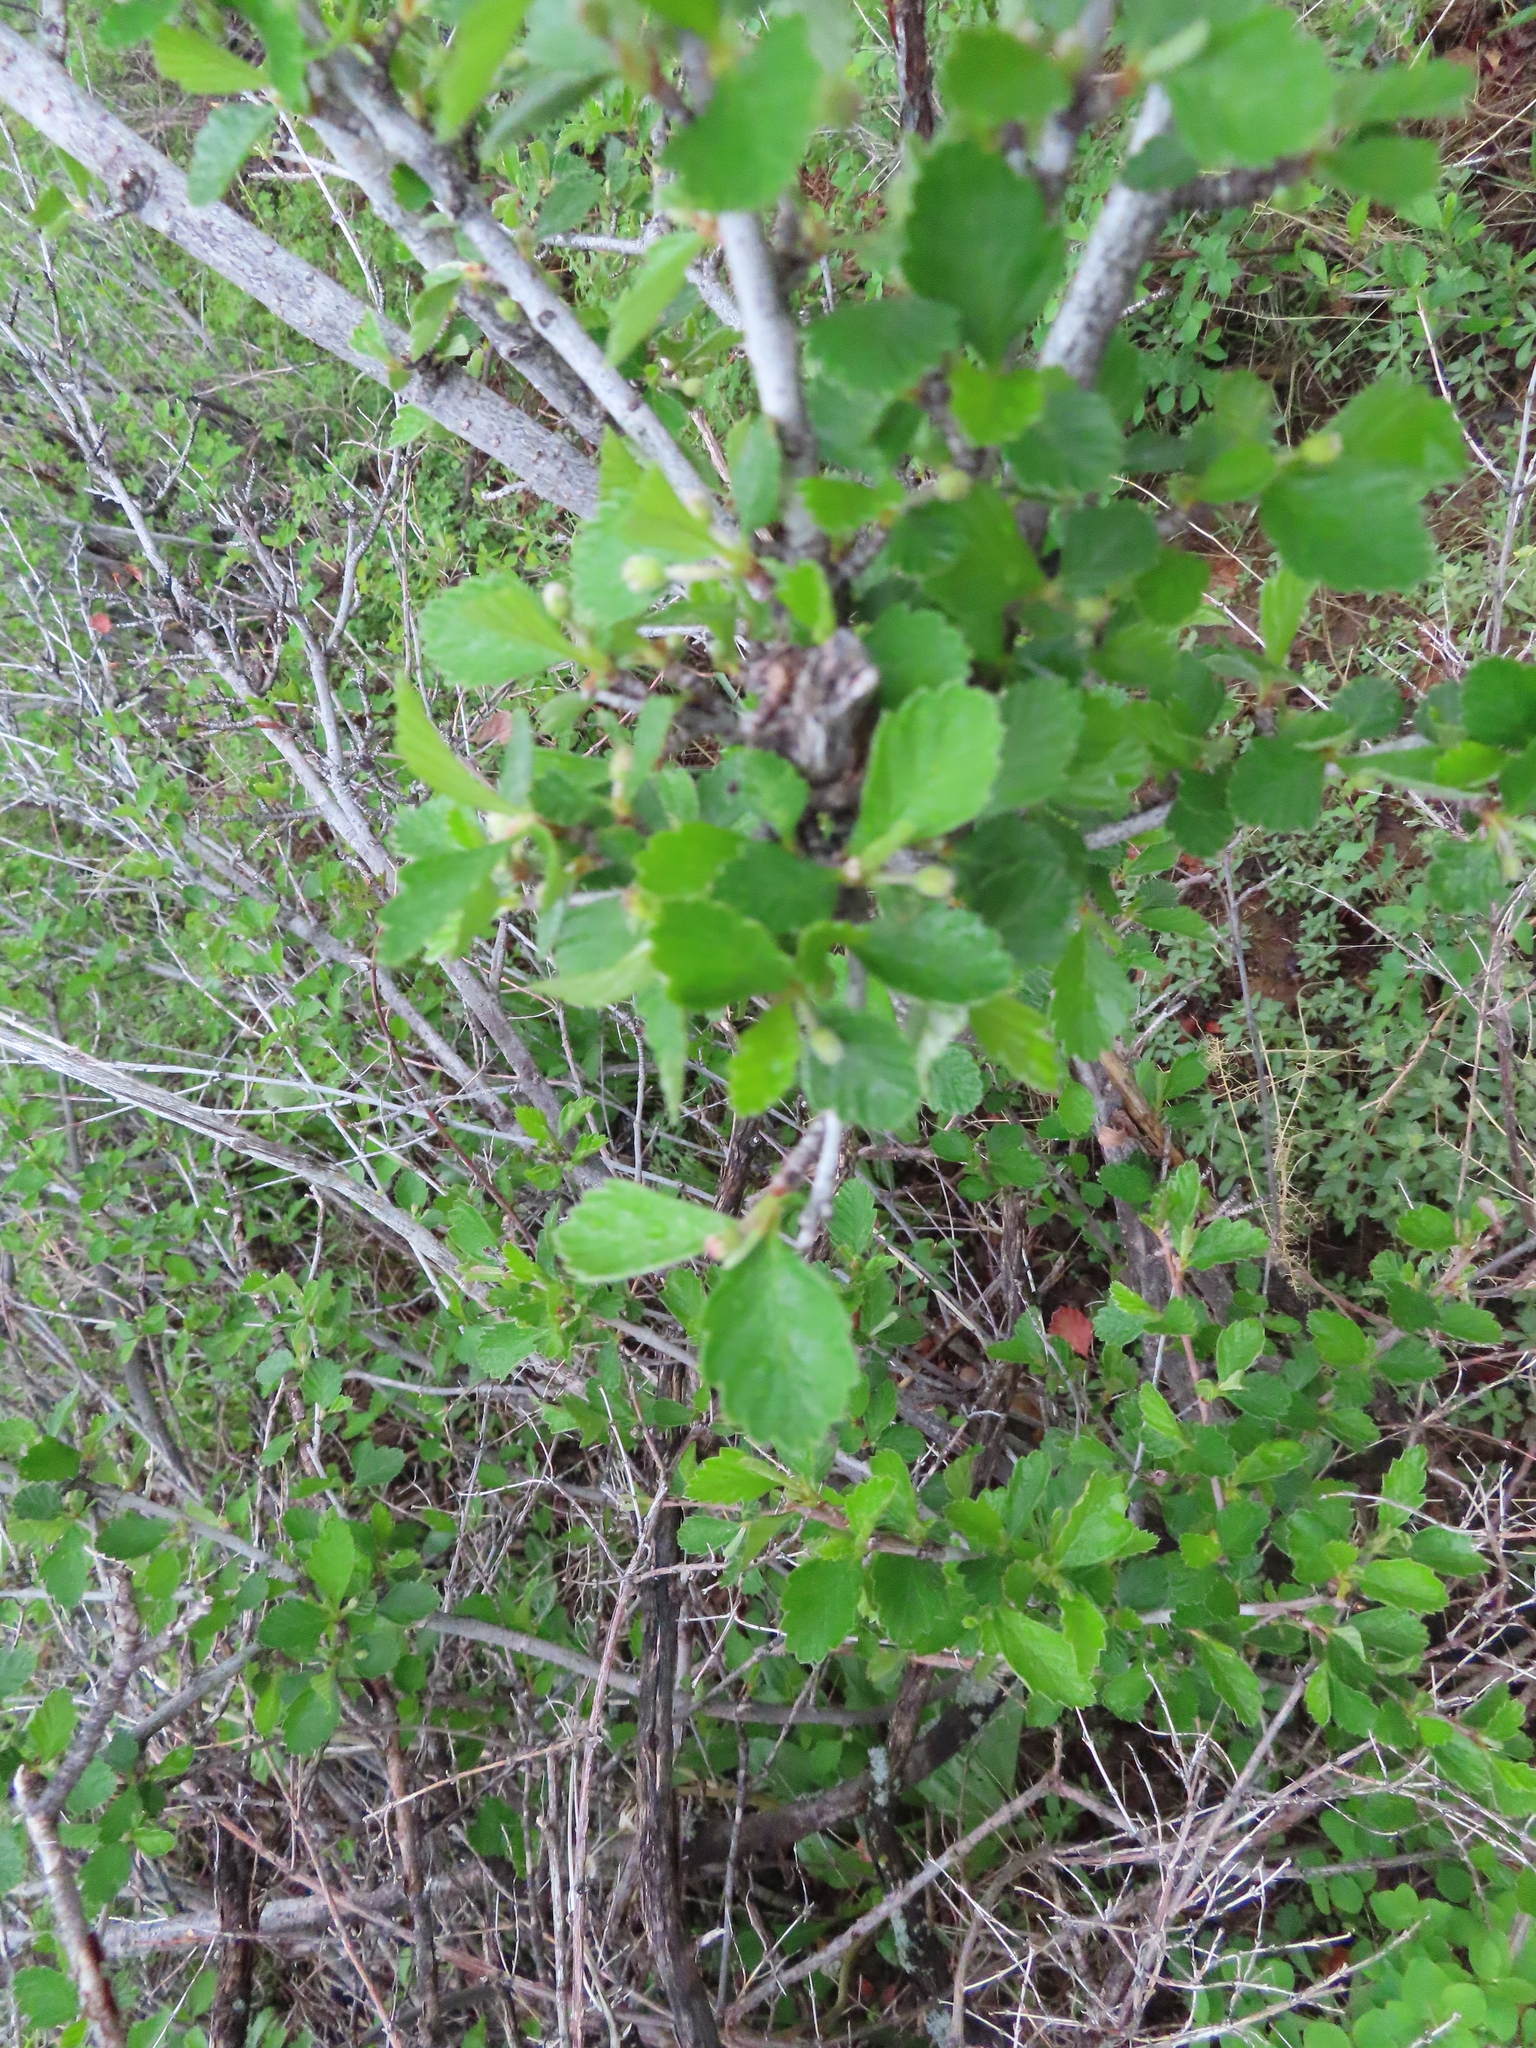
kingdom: Plantae
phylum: Tracheophyta
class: Magnoliopsida
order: Rosales
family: Rosaceae
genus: Cercocarpus
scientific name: Cercocarpus montanus
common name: Alder-leaf cercocarpus
